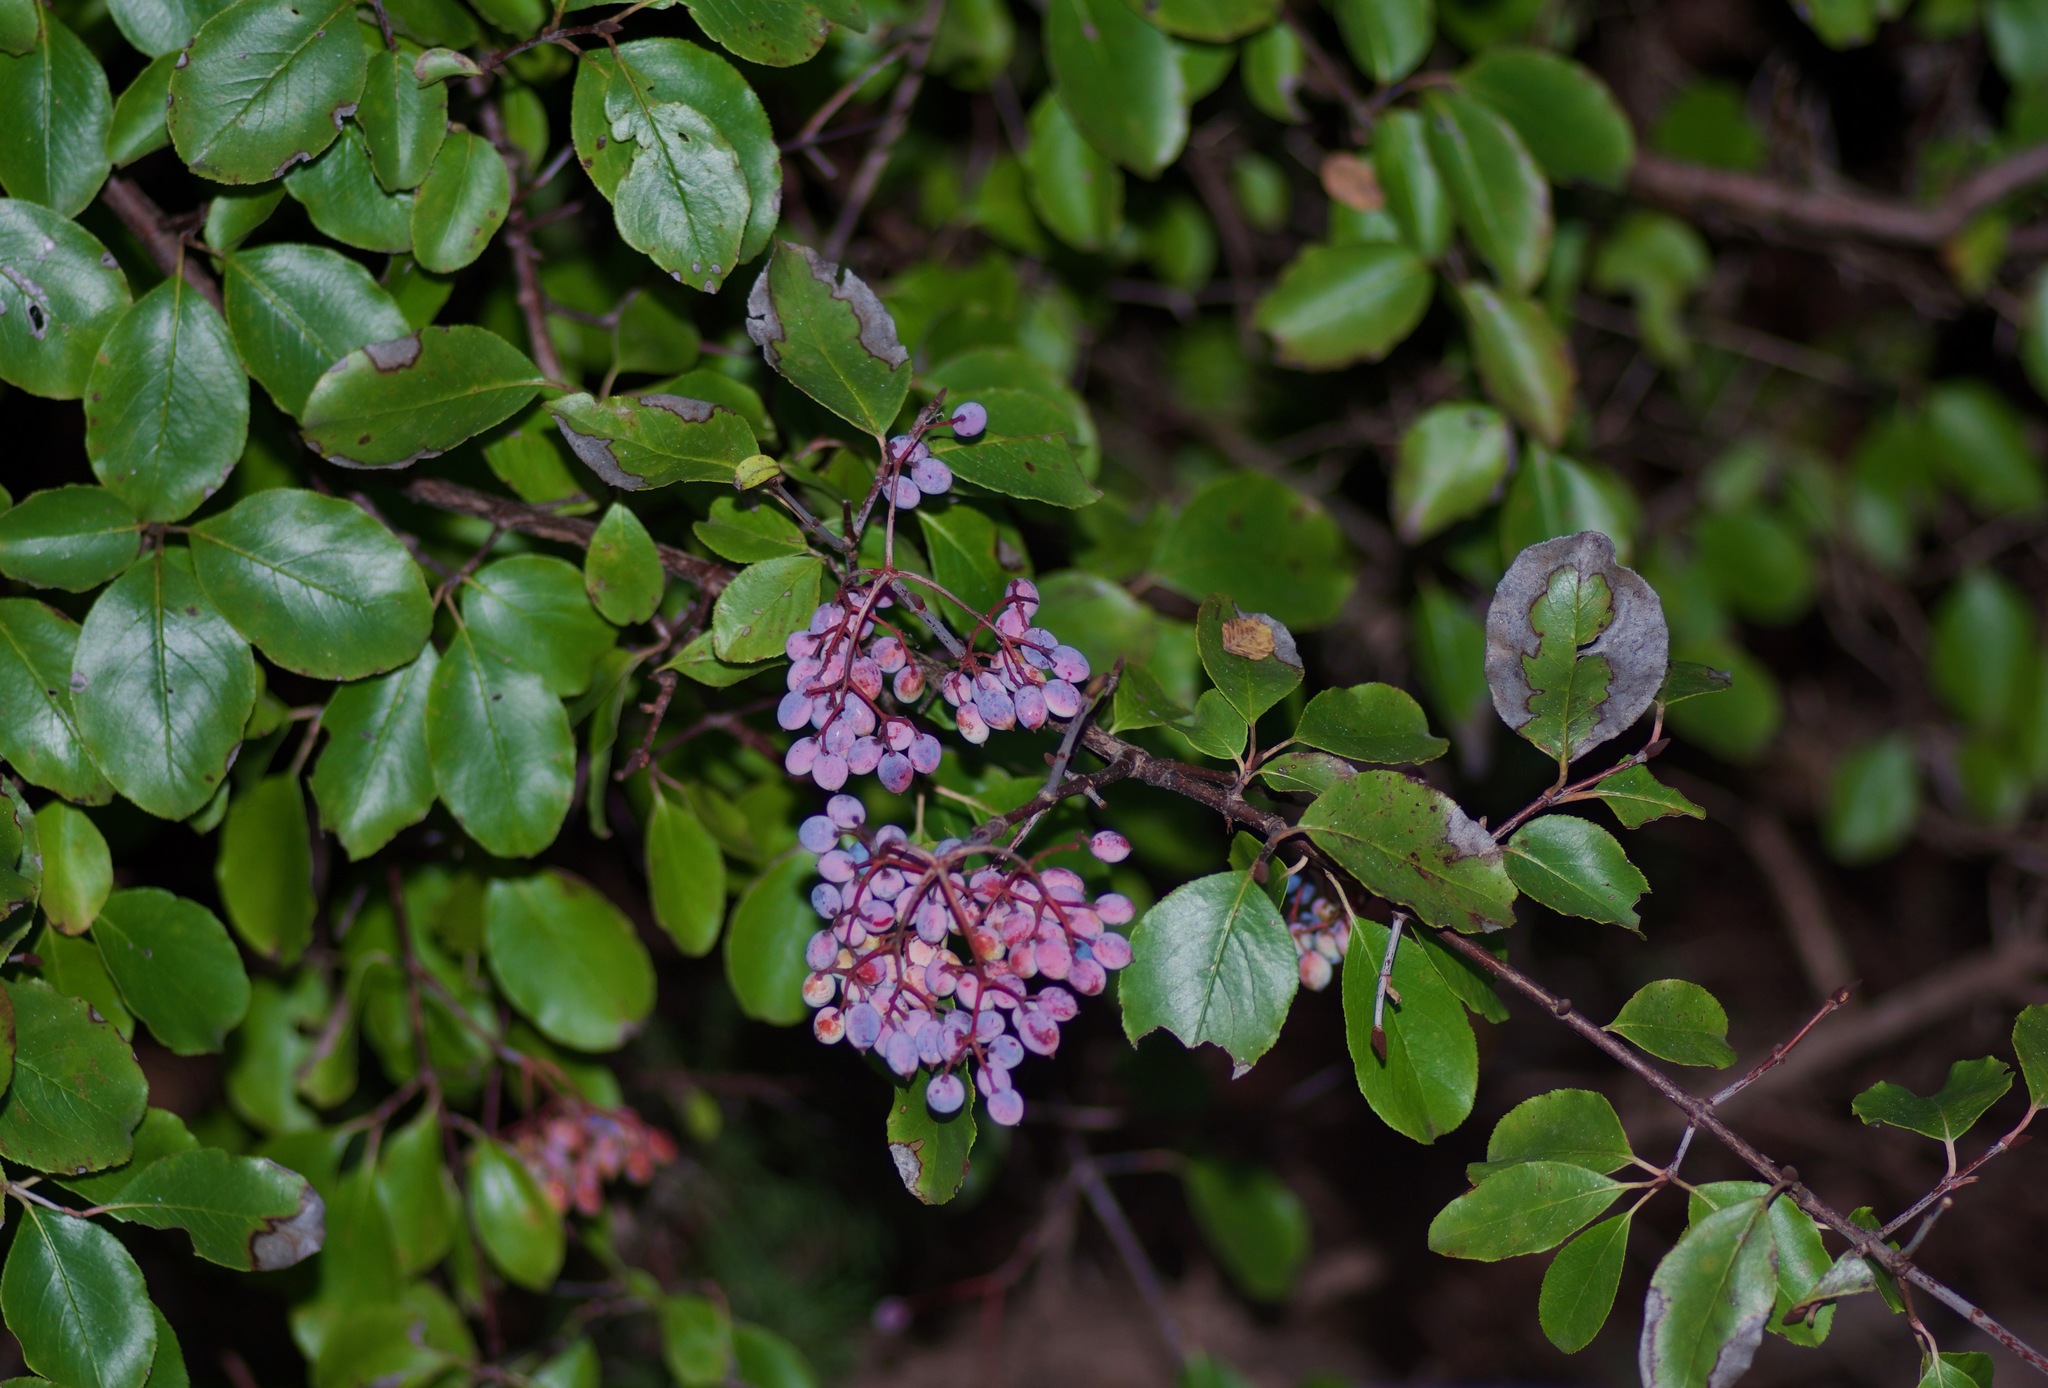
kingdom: Plantae
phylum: Tracheophyta
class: Magnoliopsida
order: Dipsacales
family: Viburnaceae
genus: Viburnum
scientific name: Viburnum rufidulum
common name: Blue haw
